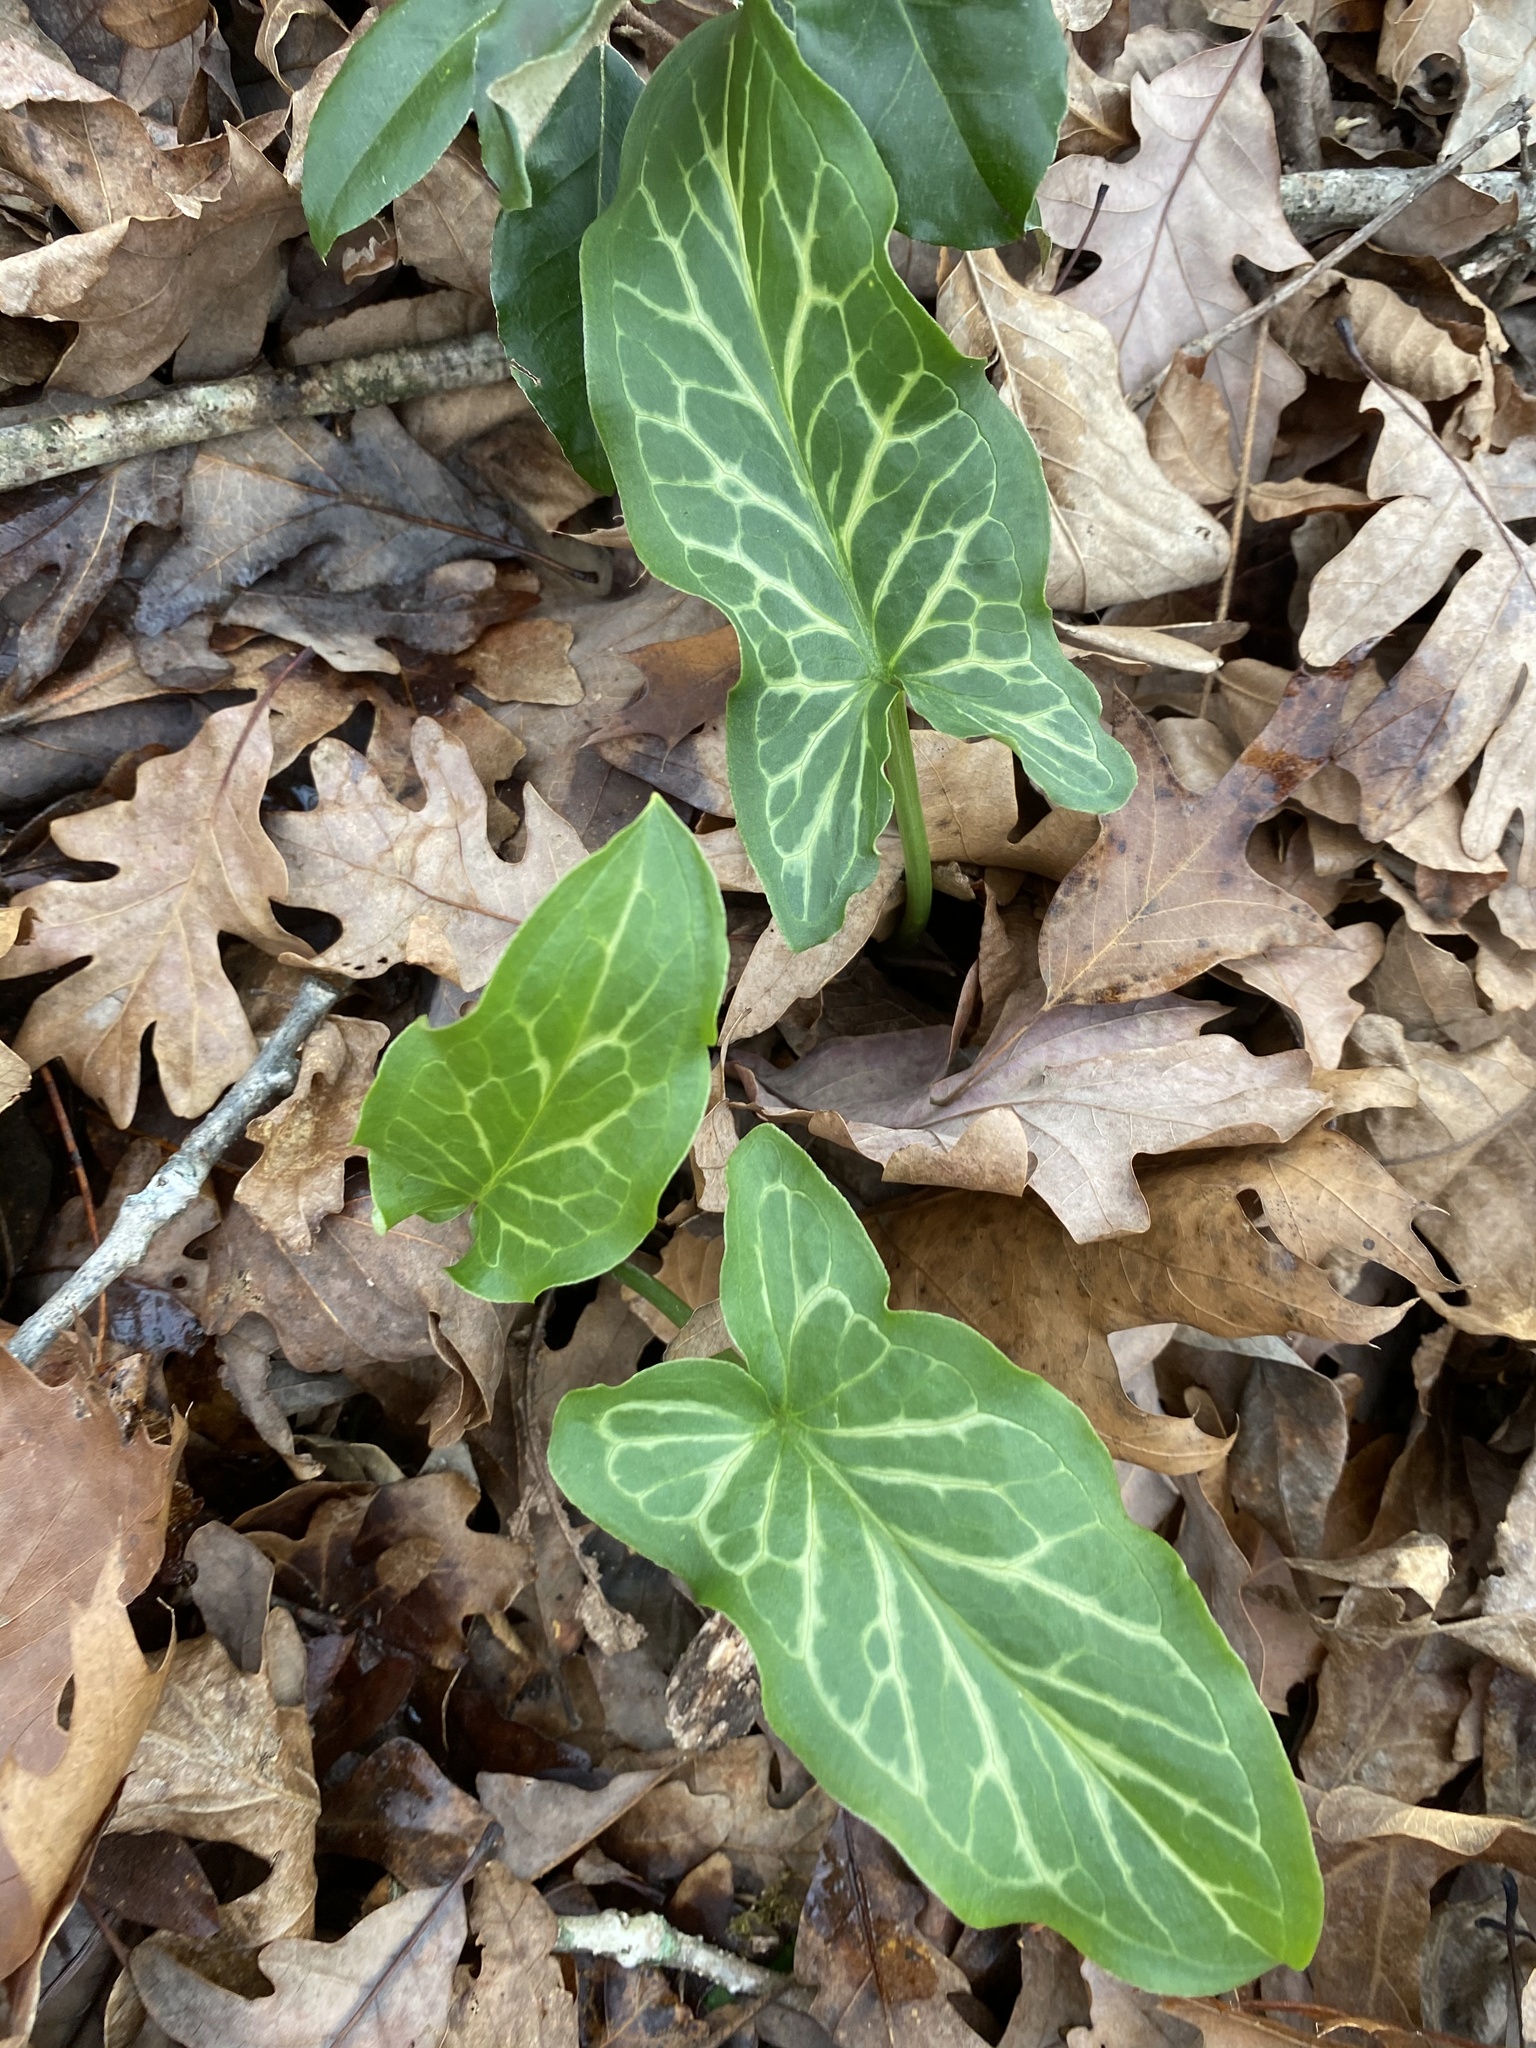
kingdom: Plantae
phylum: Tracheophyta
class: Liliopsida
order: Alismatales
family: Araceae
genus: Arum
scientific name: Arum italicum
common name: Italian lords-and-ladies
